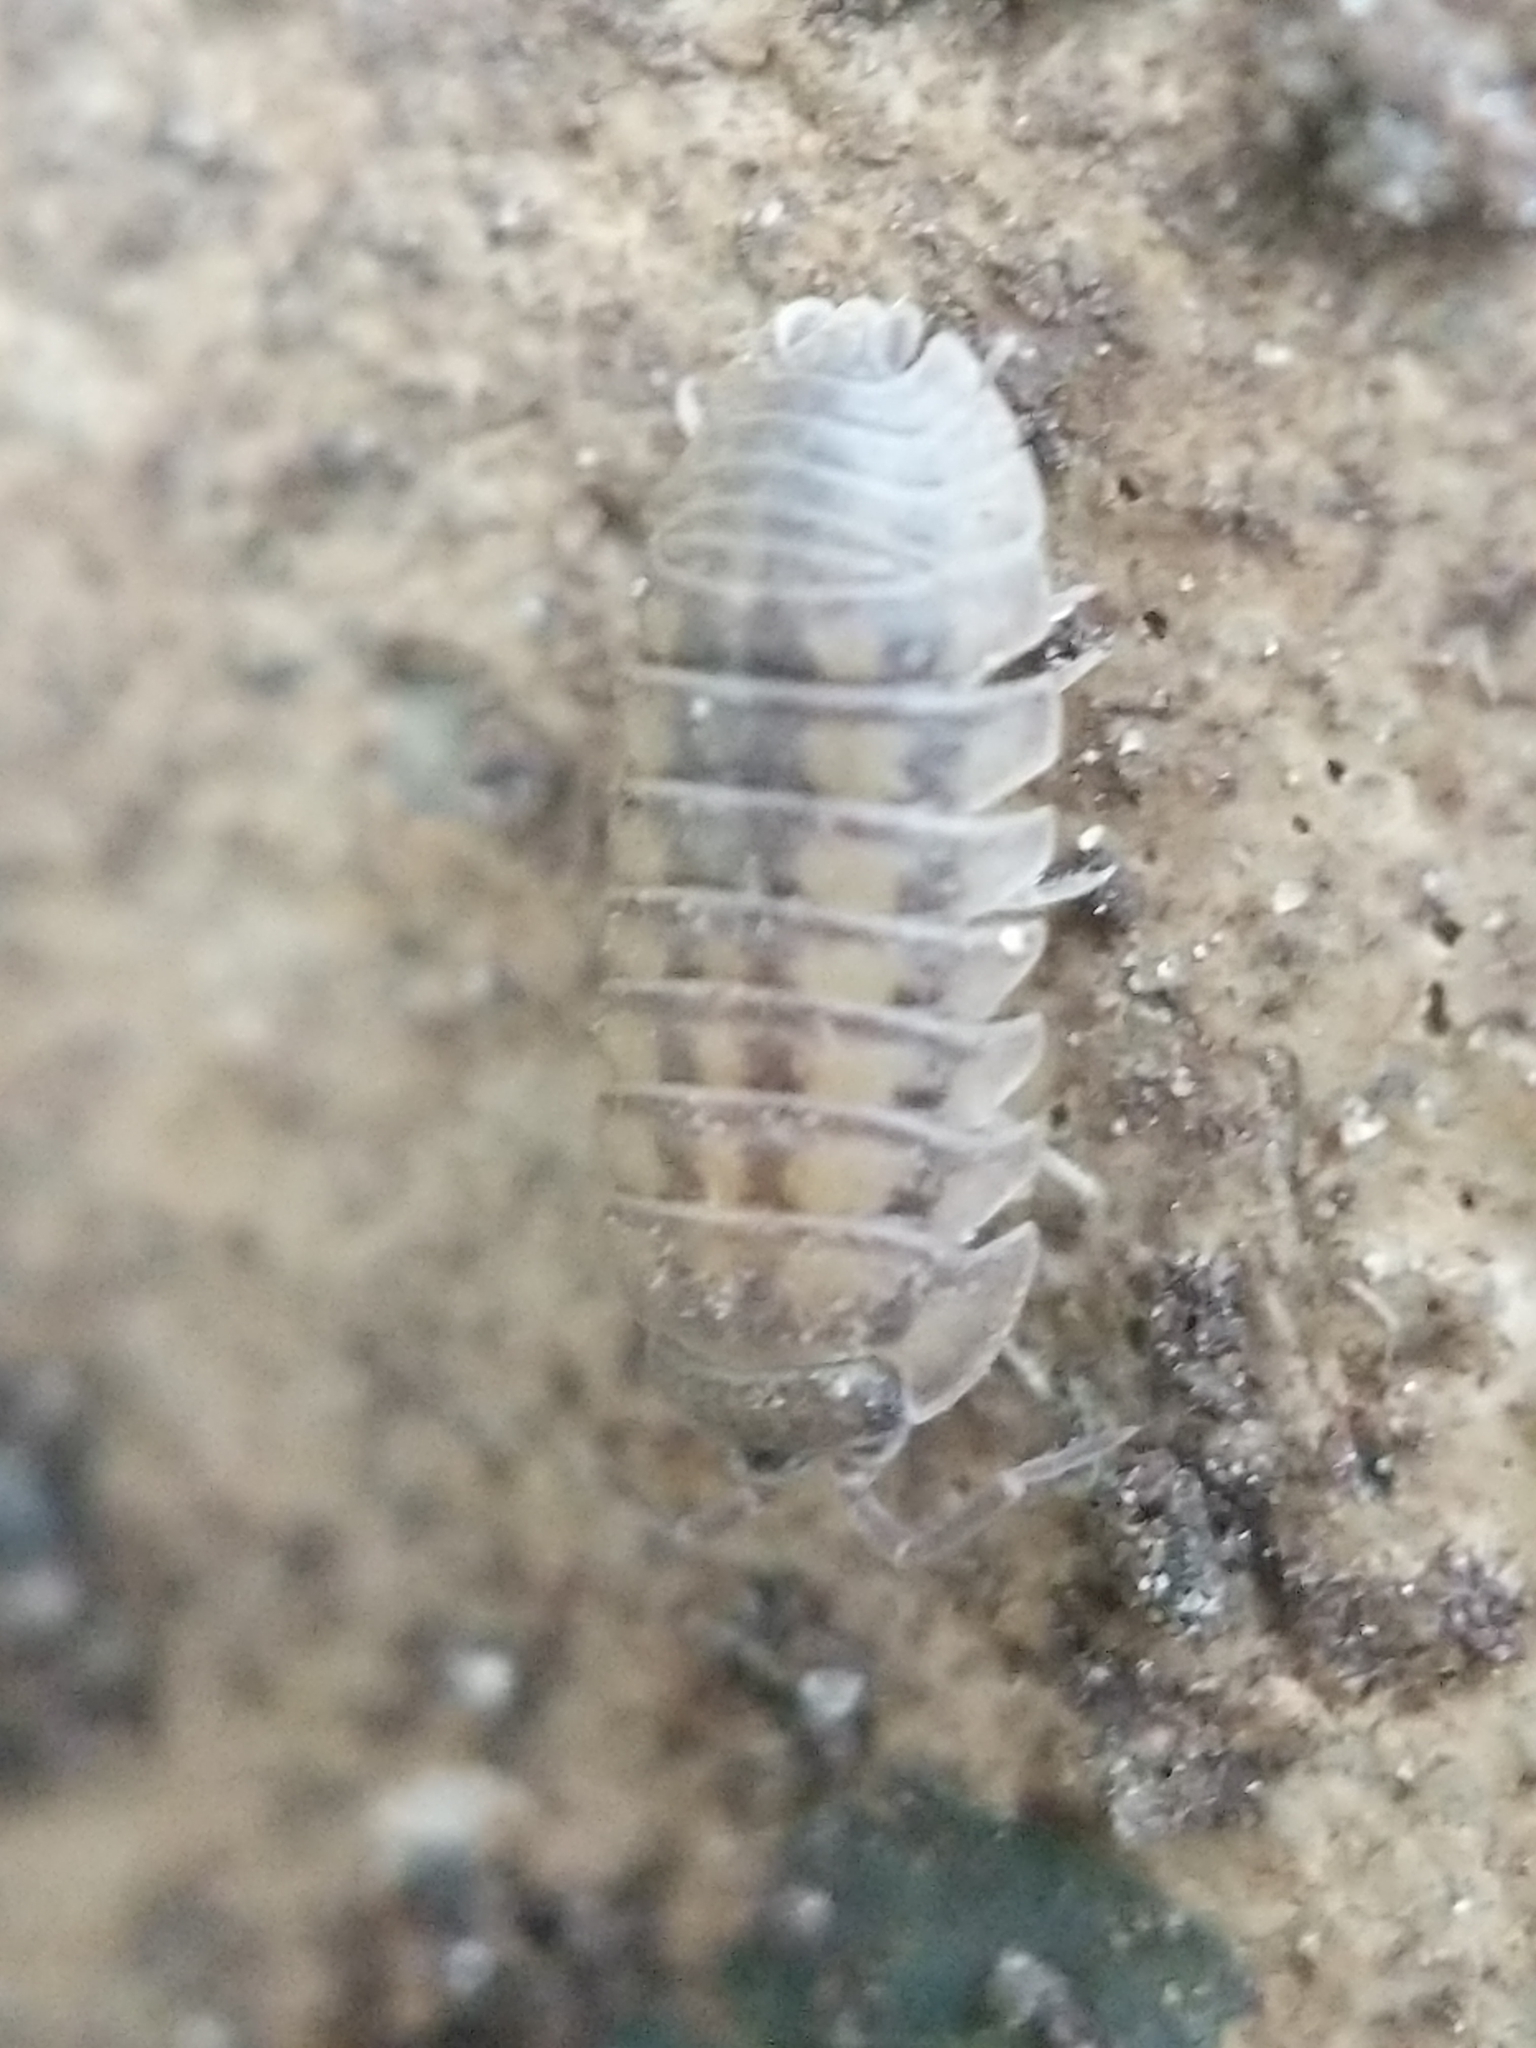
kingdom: Animalia
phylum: Arthropoda
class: Malacostraca
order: Isopoda
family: Armadillidiidae
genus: Armadillidium
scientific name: Armadillidium nasatum
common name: Isopod
